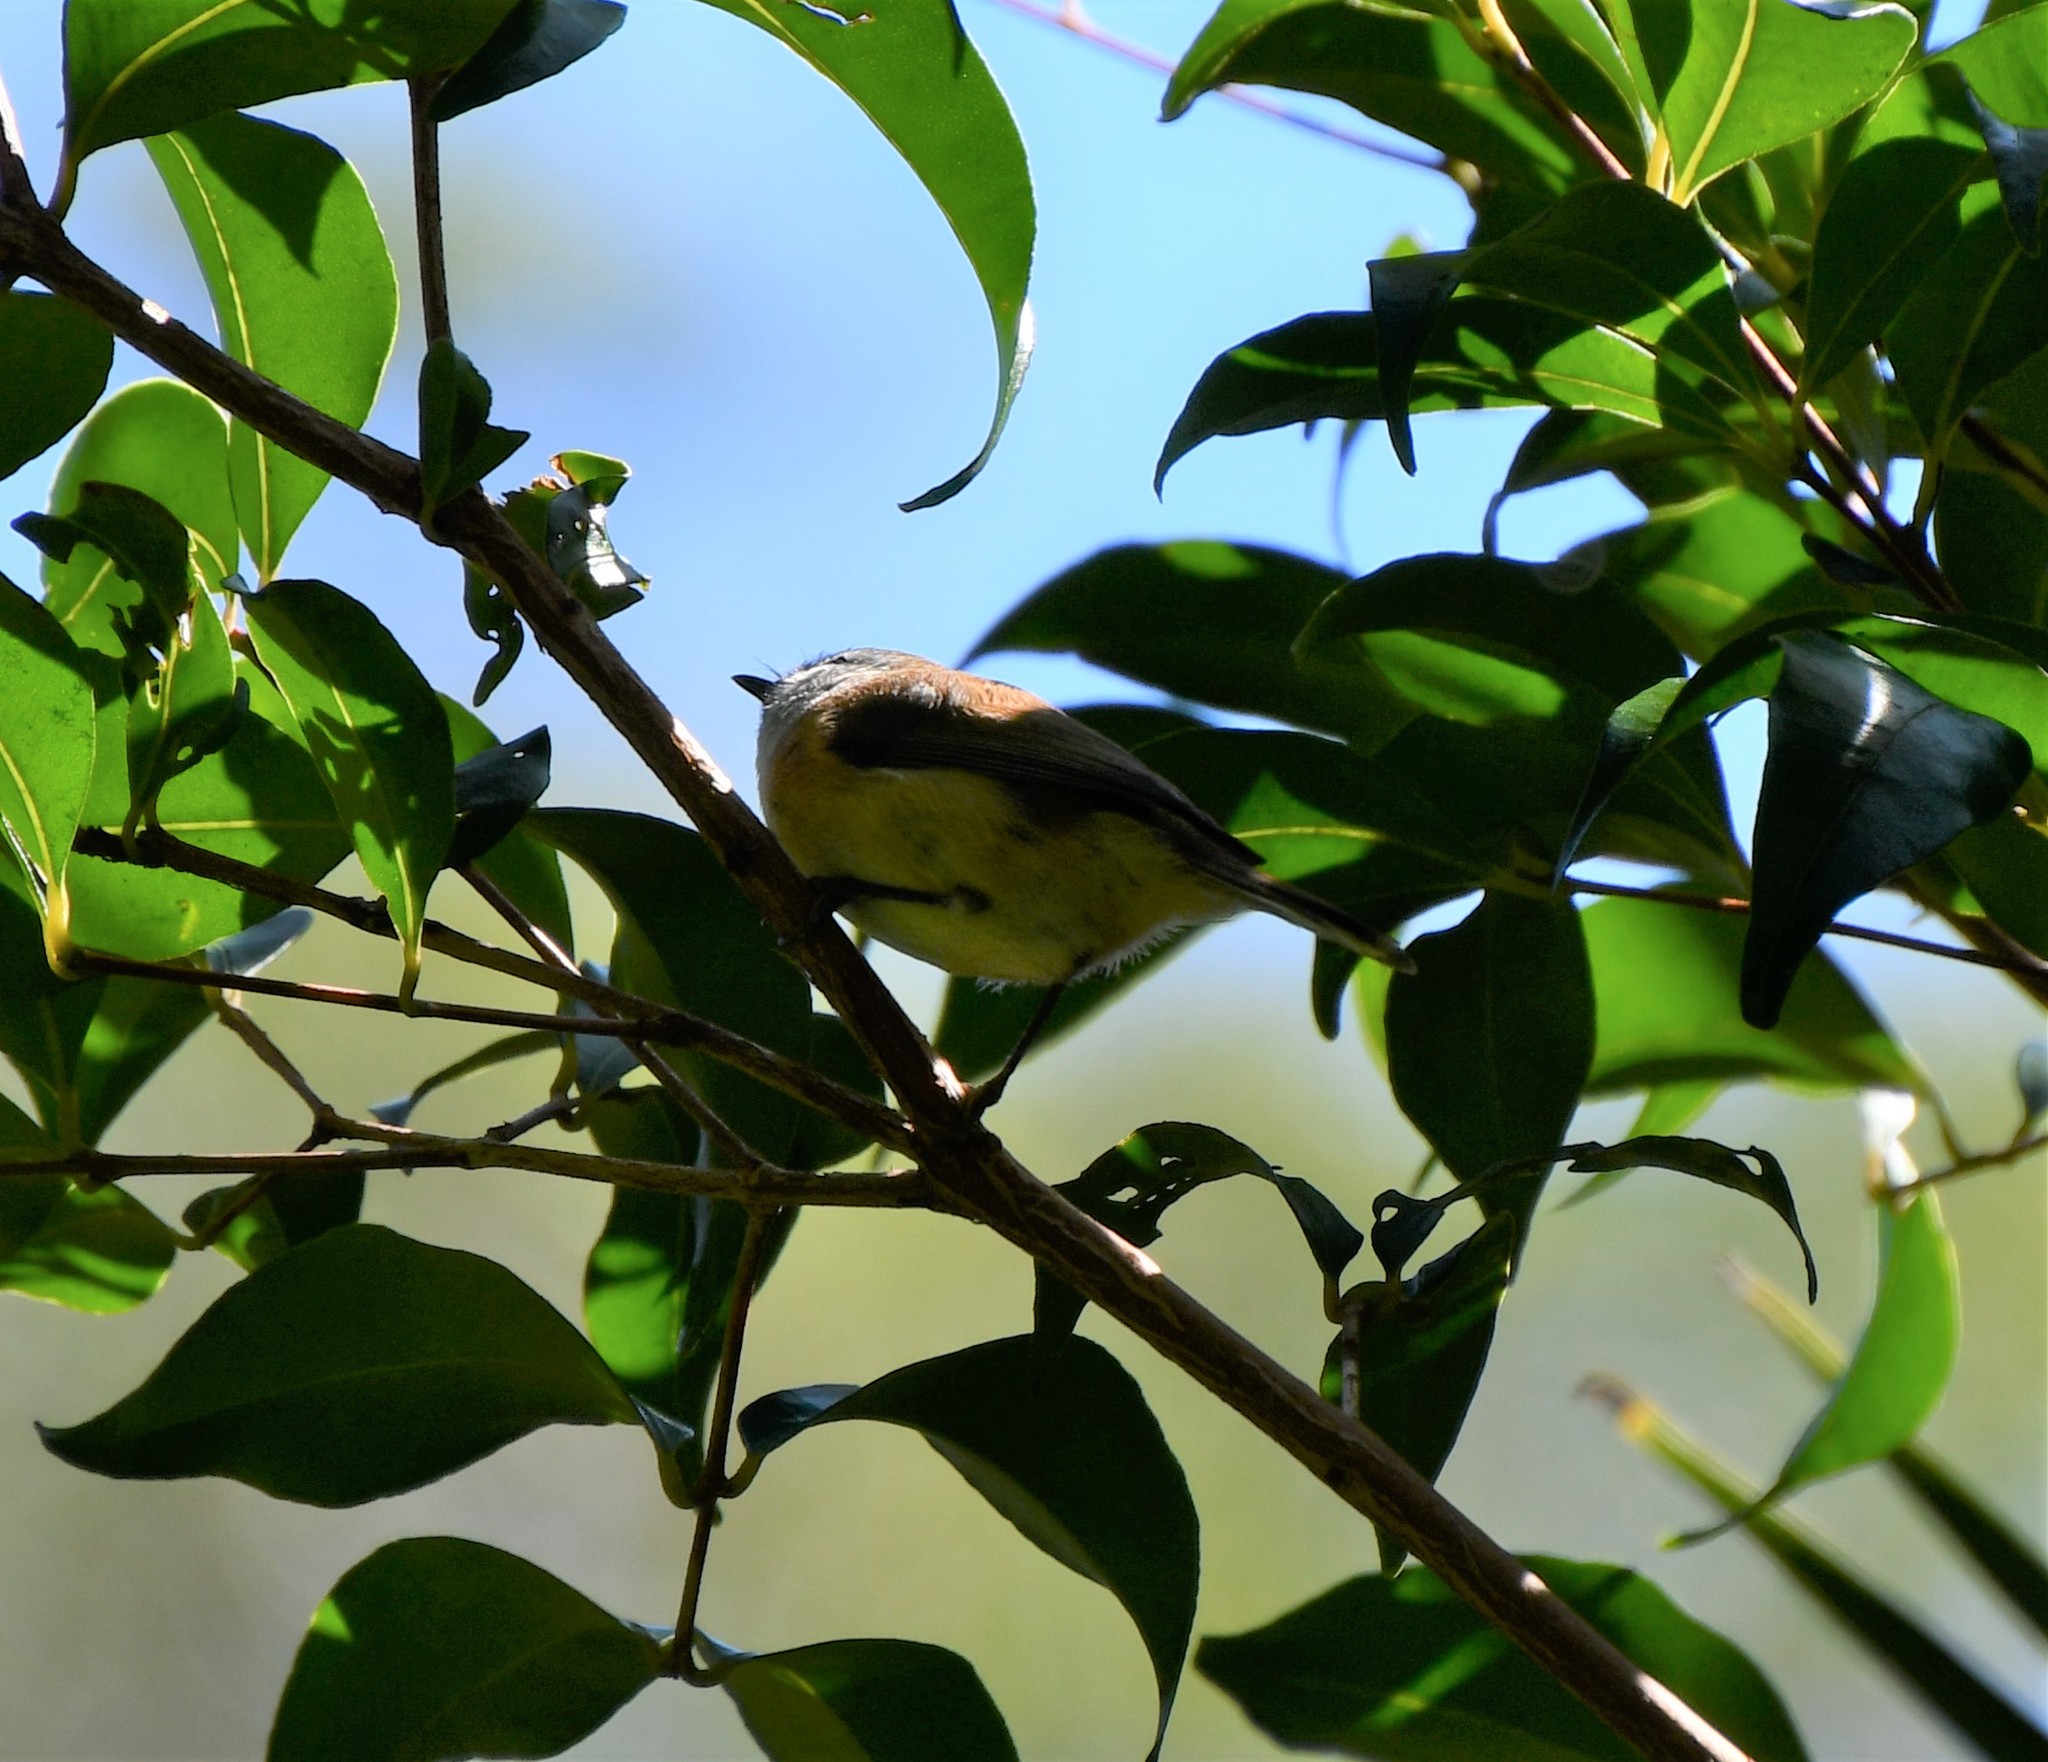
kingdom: Animalia
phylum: Chordata
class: Aves
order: Passeriformes
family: Acanthizidae
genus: Gerygone
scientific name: Gerygone mouki
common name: Brown gerygone
